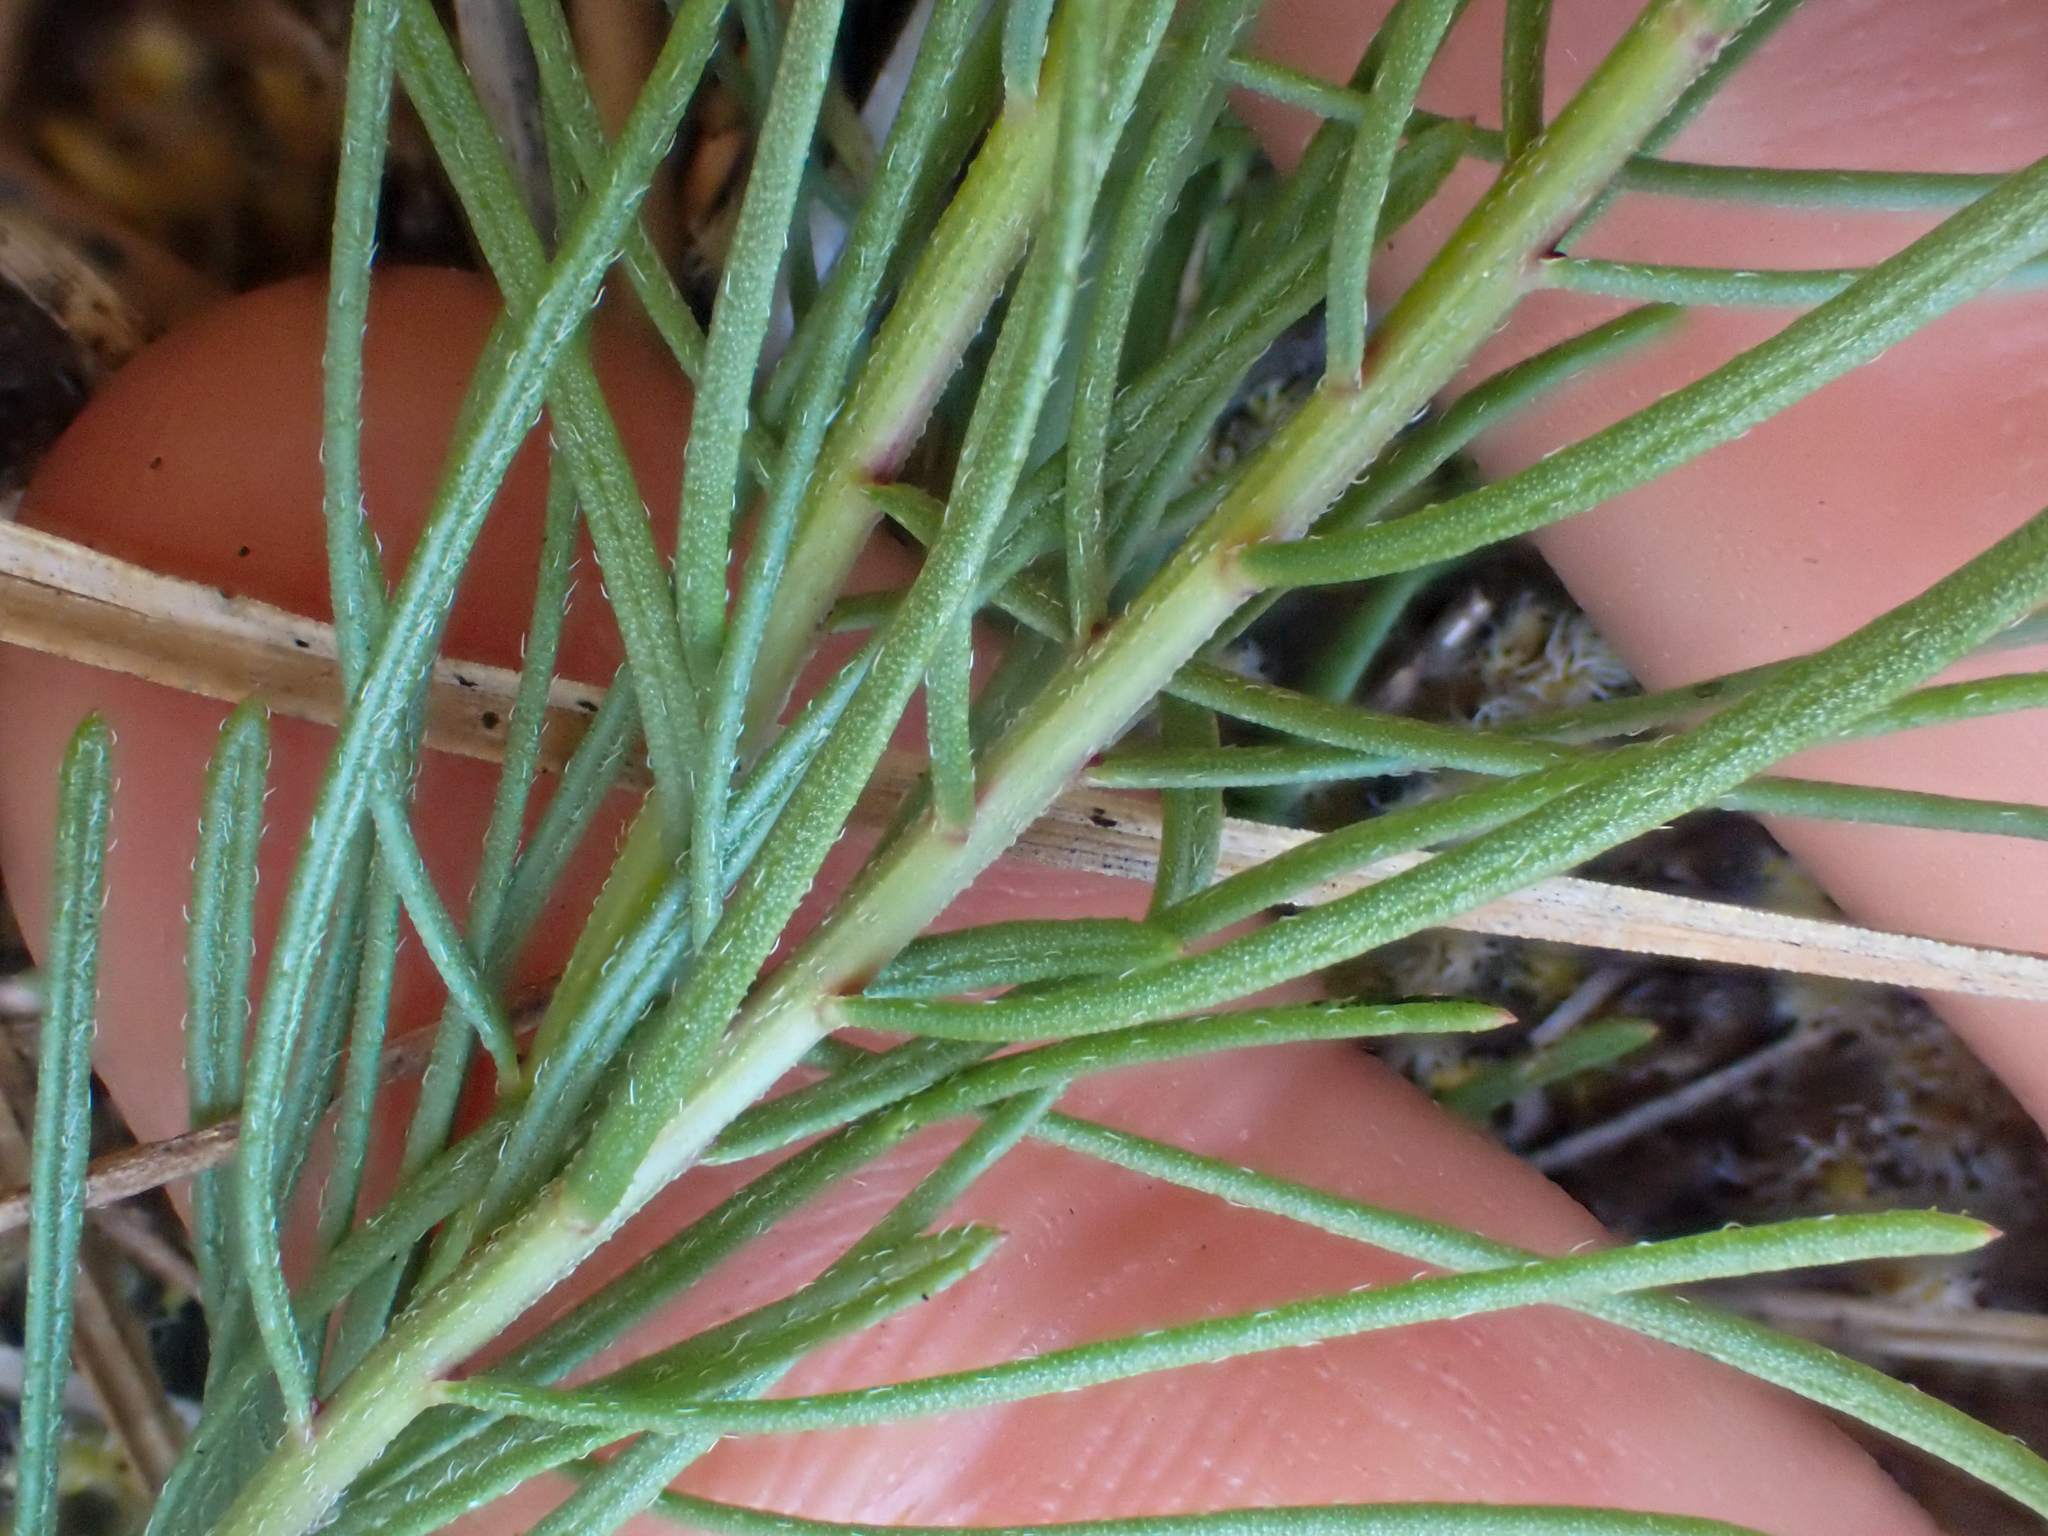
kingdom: Plantae
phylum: Tracheophyta
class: Magnoliopsida
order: Asterales
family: Asteraceae
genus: Erigeron
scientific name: Erigeron foliosus
